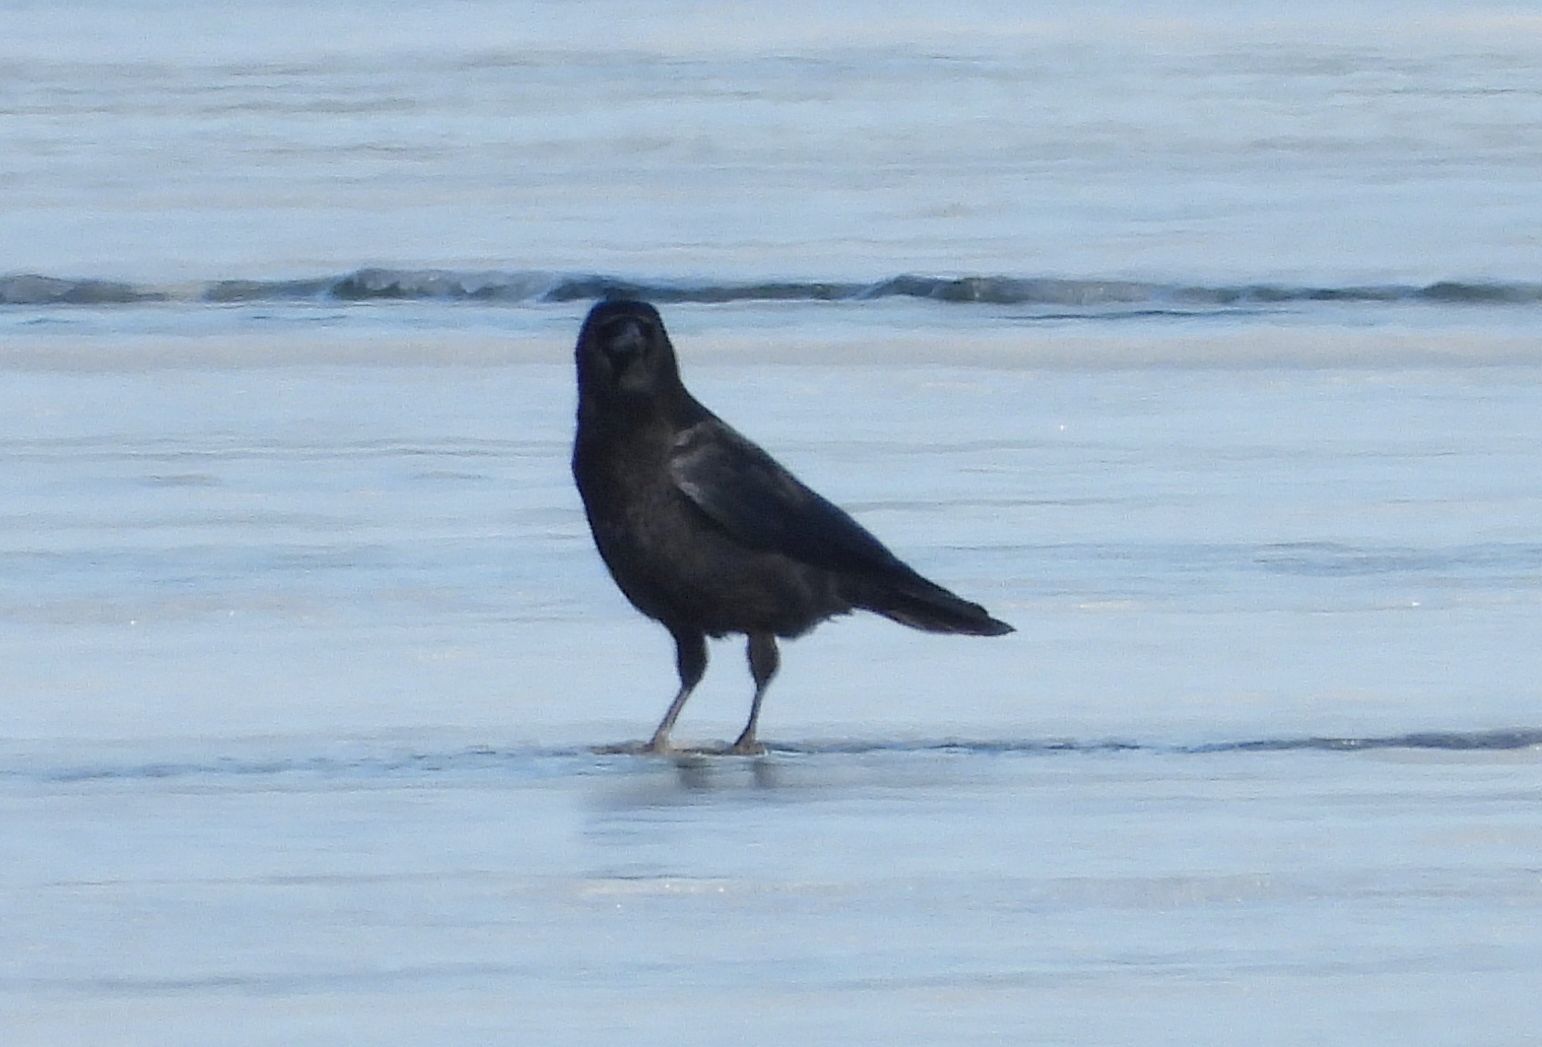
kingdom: Animalia
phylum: Chordata
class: Aves
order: Passeriformes
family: Corvidae
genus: Corvus
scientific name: Corvus brachyrhynchos
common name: American crow
